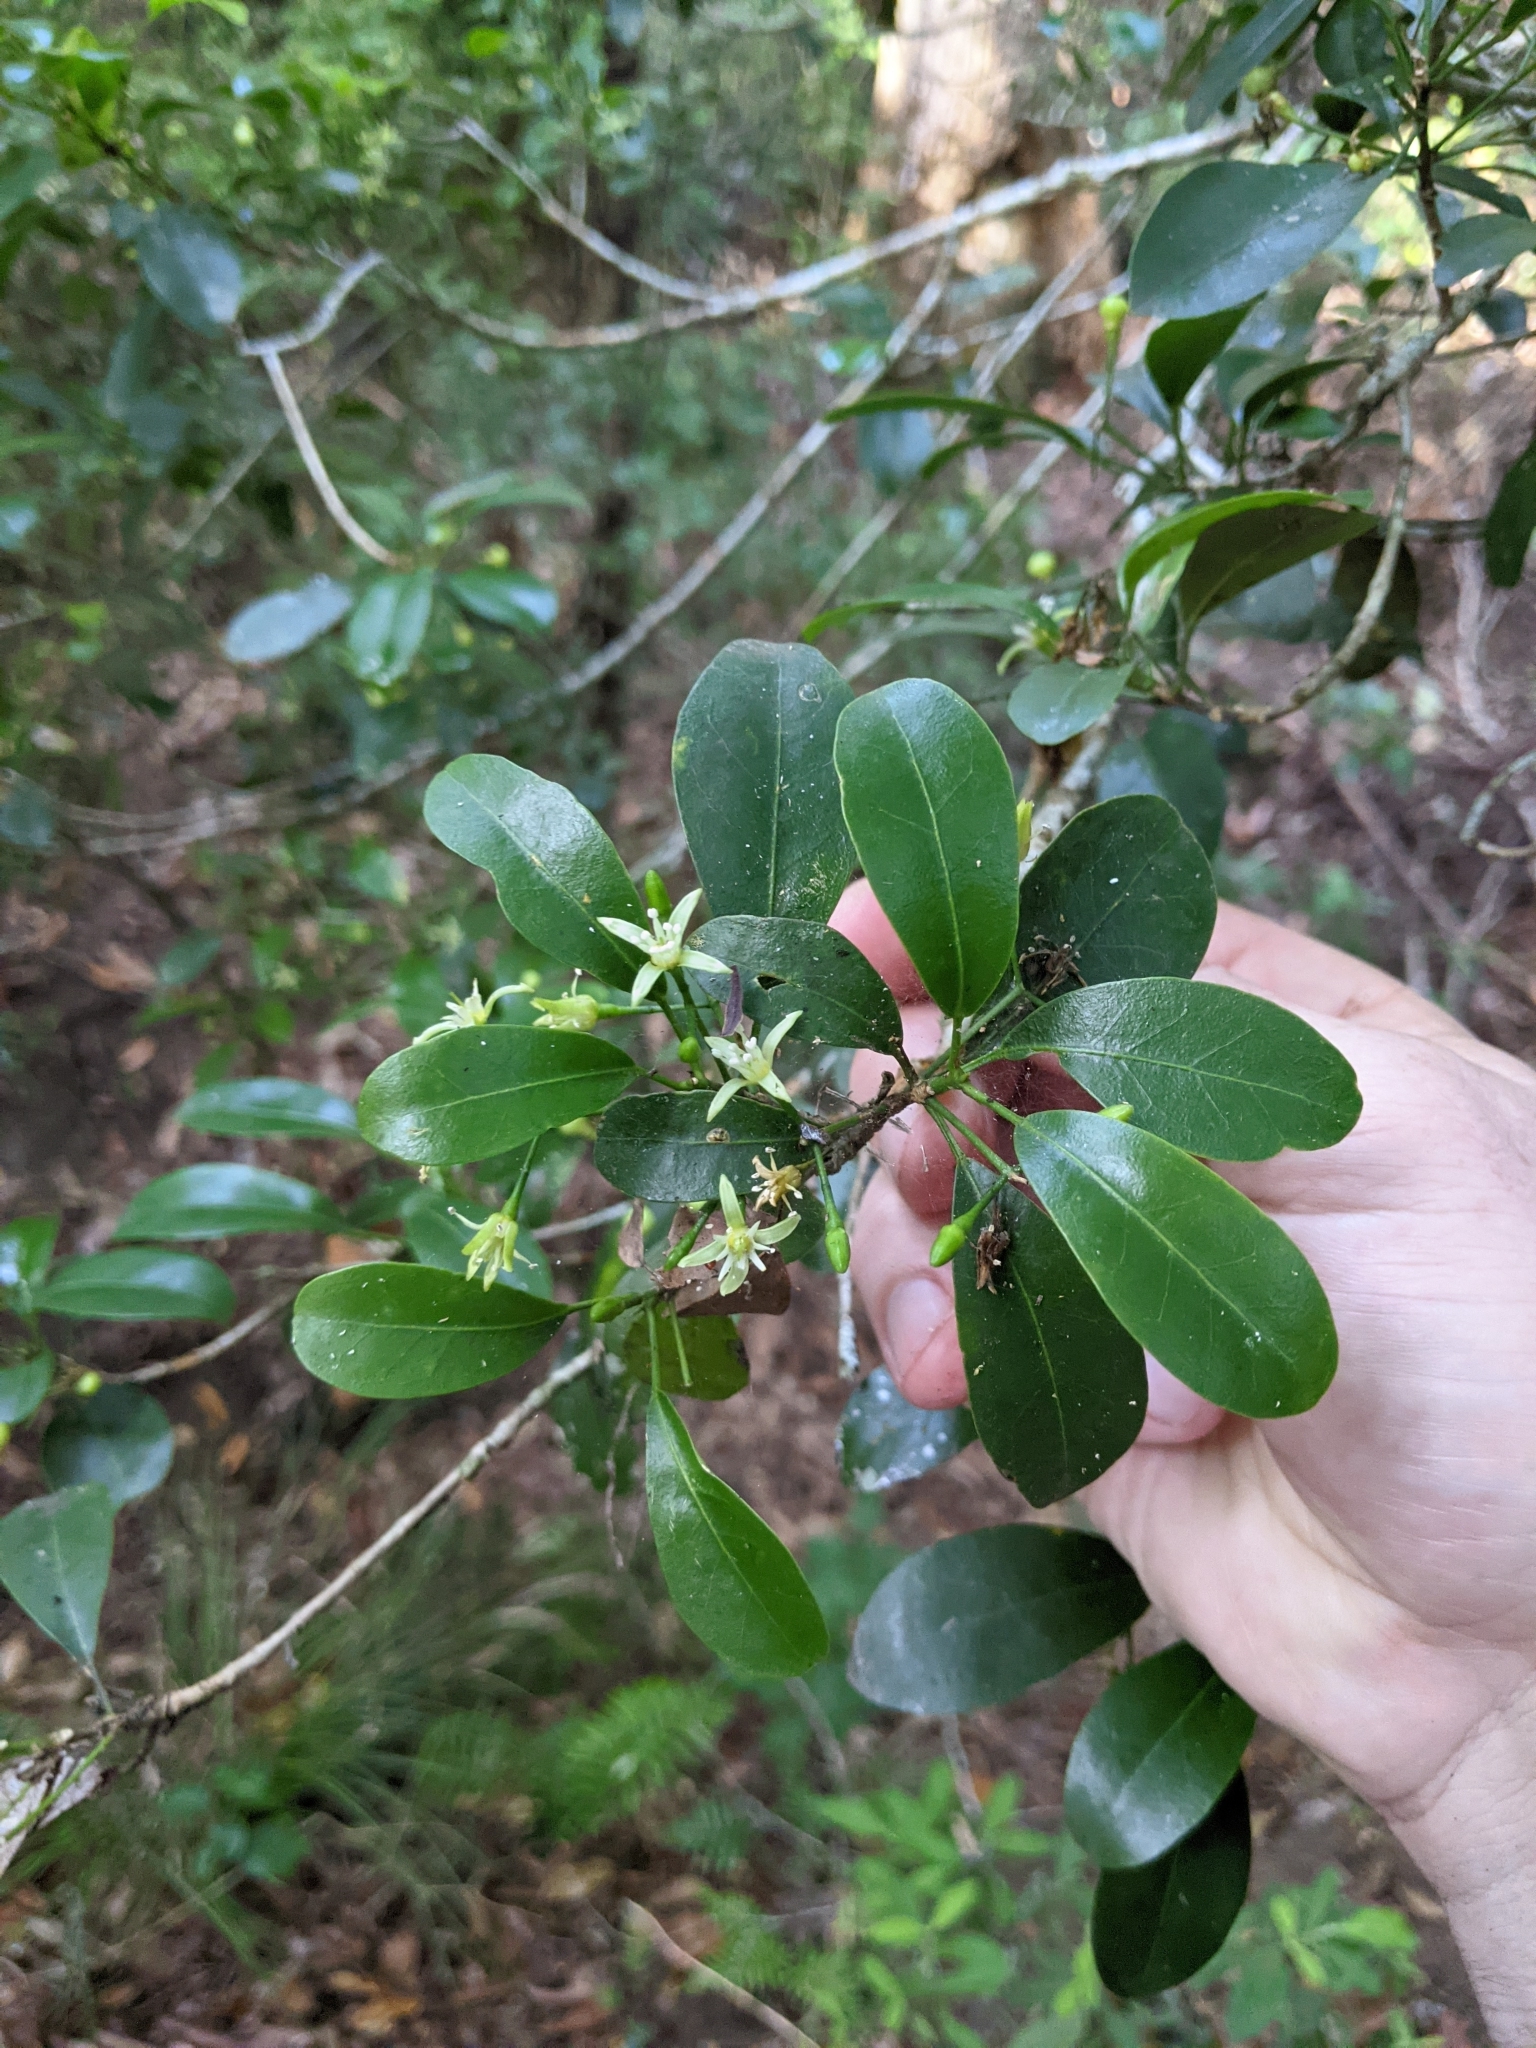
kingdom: Plantae
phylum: Tracheophyta
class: Magnoliopsida
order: Sapindales
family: Rutaceae
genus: Acronychia
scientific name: Acronychia laevis
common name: Hard aspen
